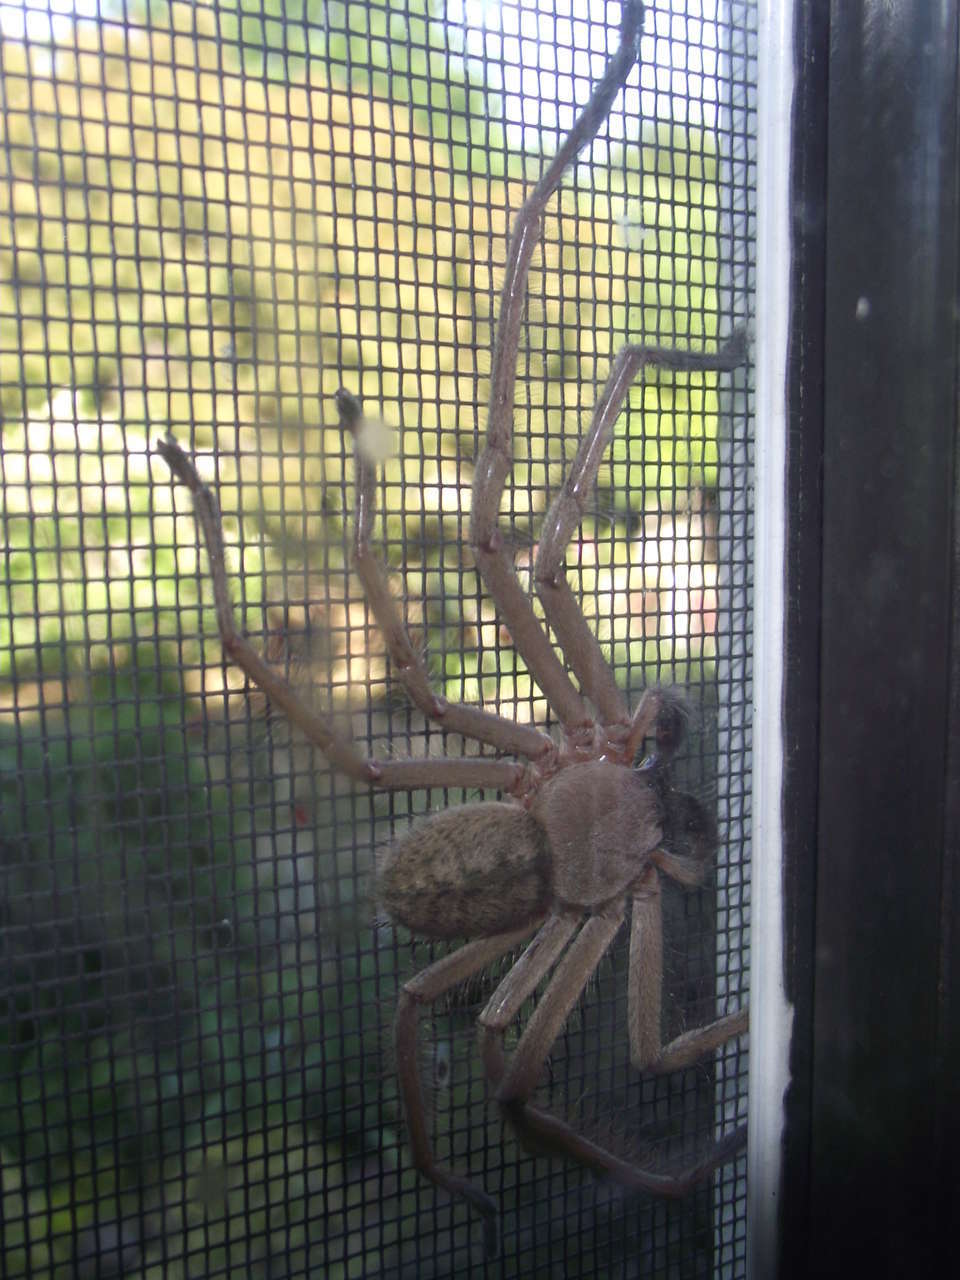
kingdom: Animalia
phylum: Arthropoda
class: Arachnida
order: Araneae
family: Sparassidae
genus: Delena
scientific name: Delena cancerides
